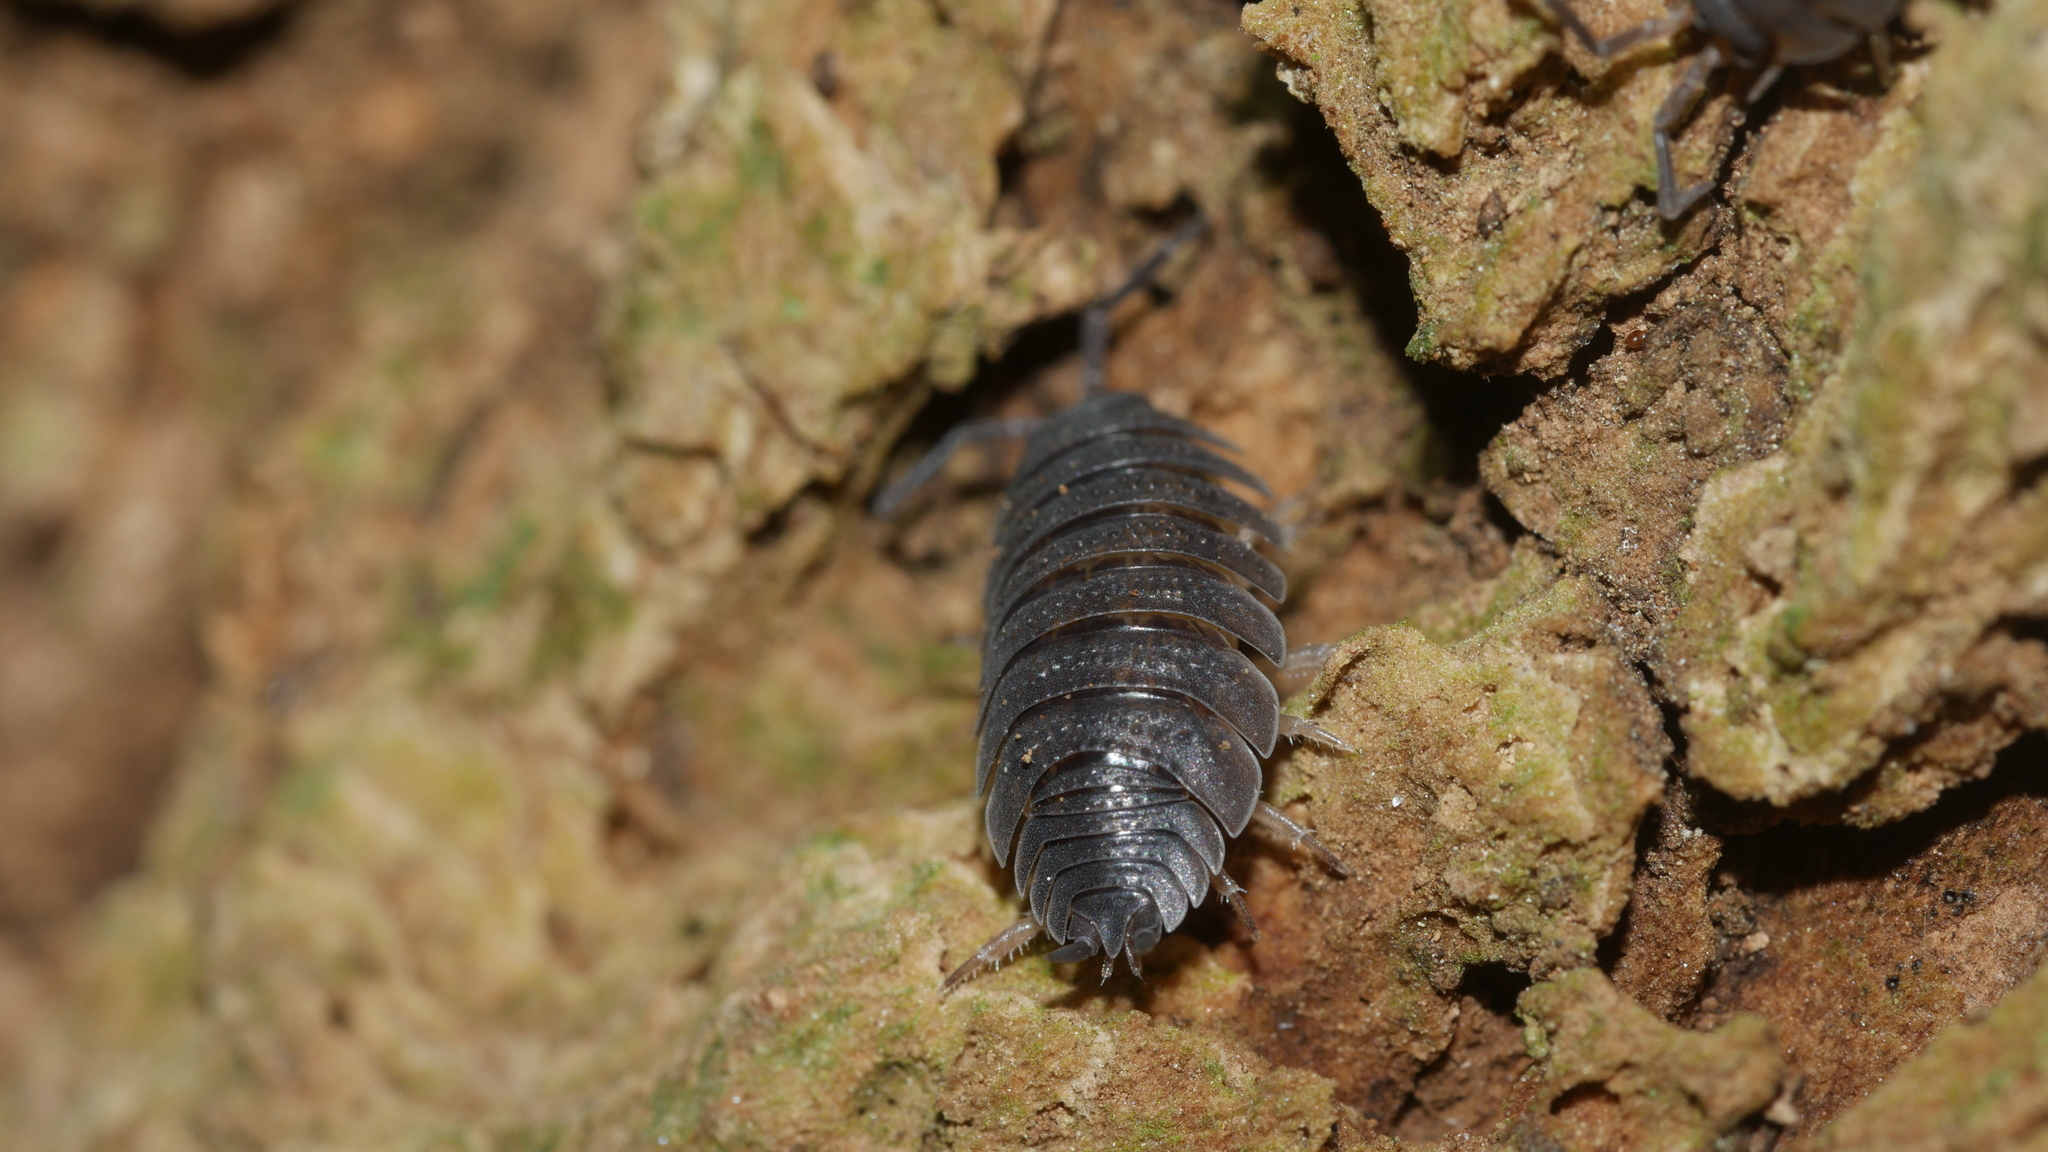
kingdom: Animalia
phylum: Arthropoda
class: Malacostraca
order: Isopoda
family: Porcellionidae
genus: Porcellio
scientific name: Porcellio scaber
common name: Common rough woodlouse
